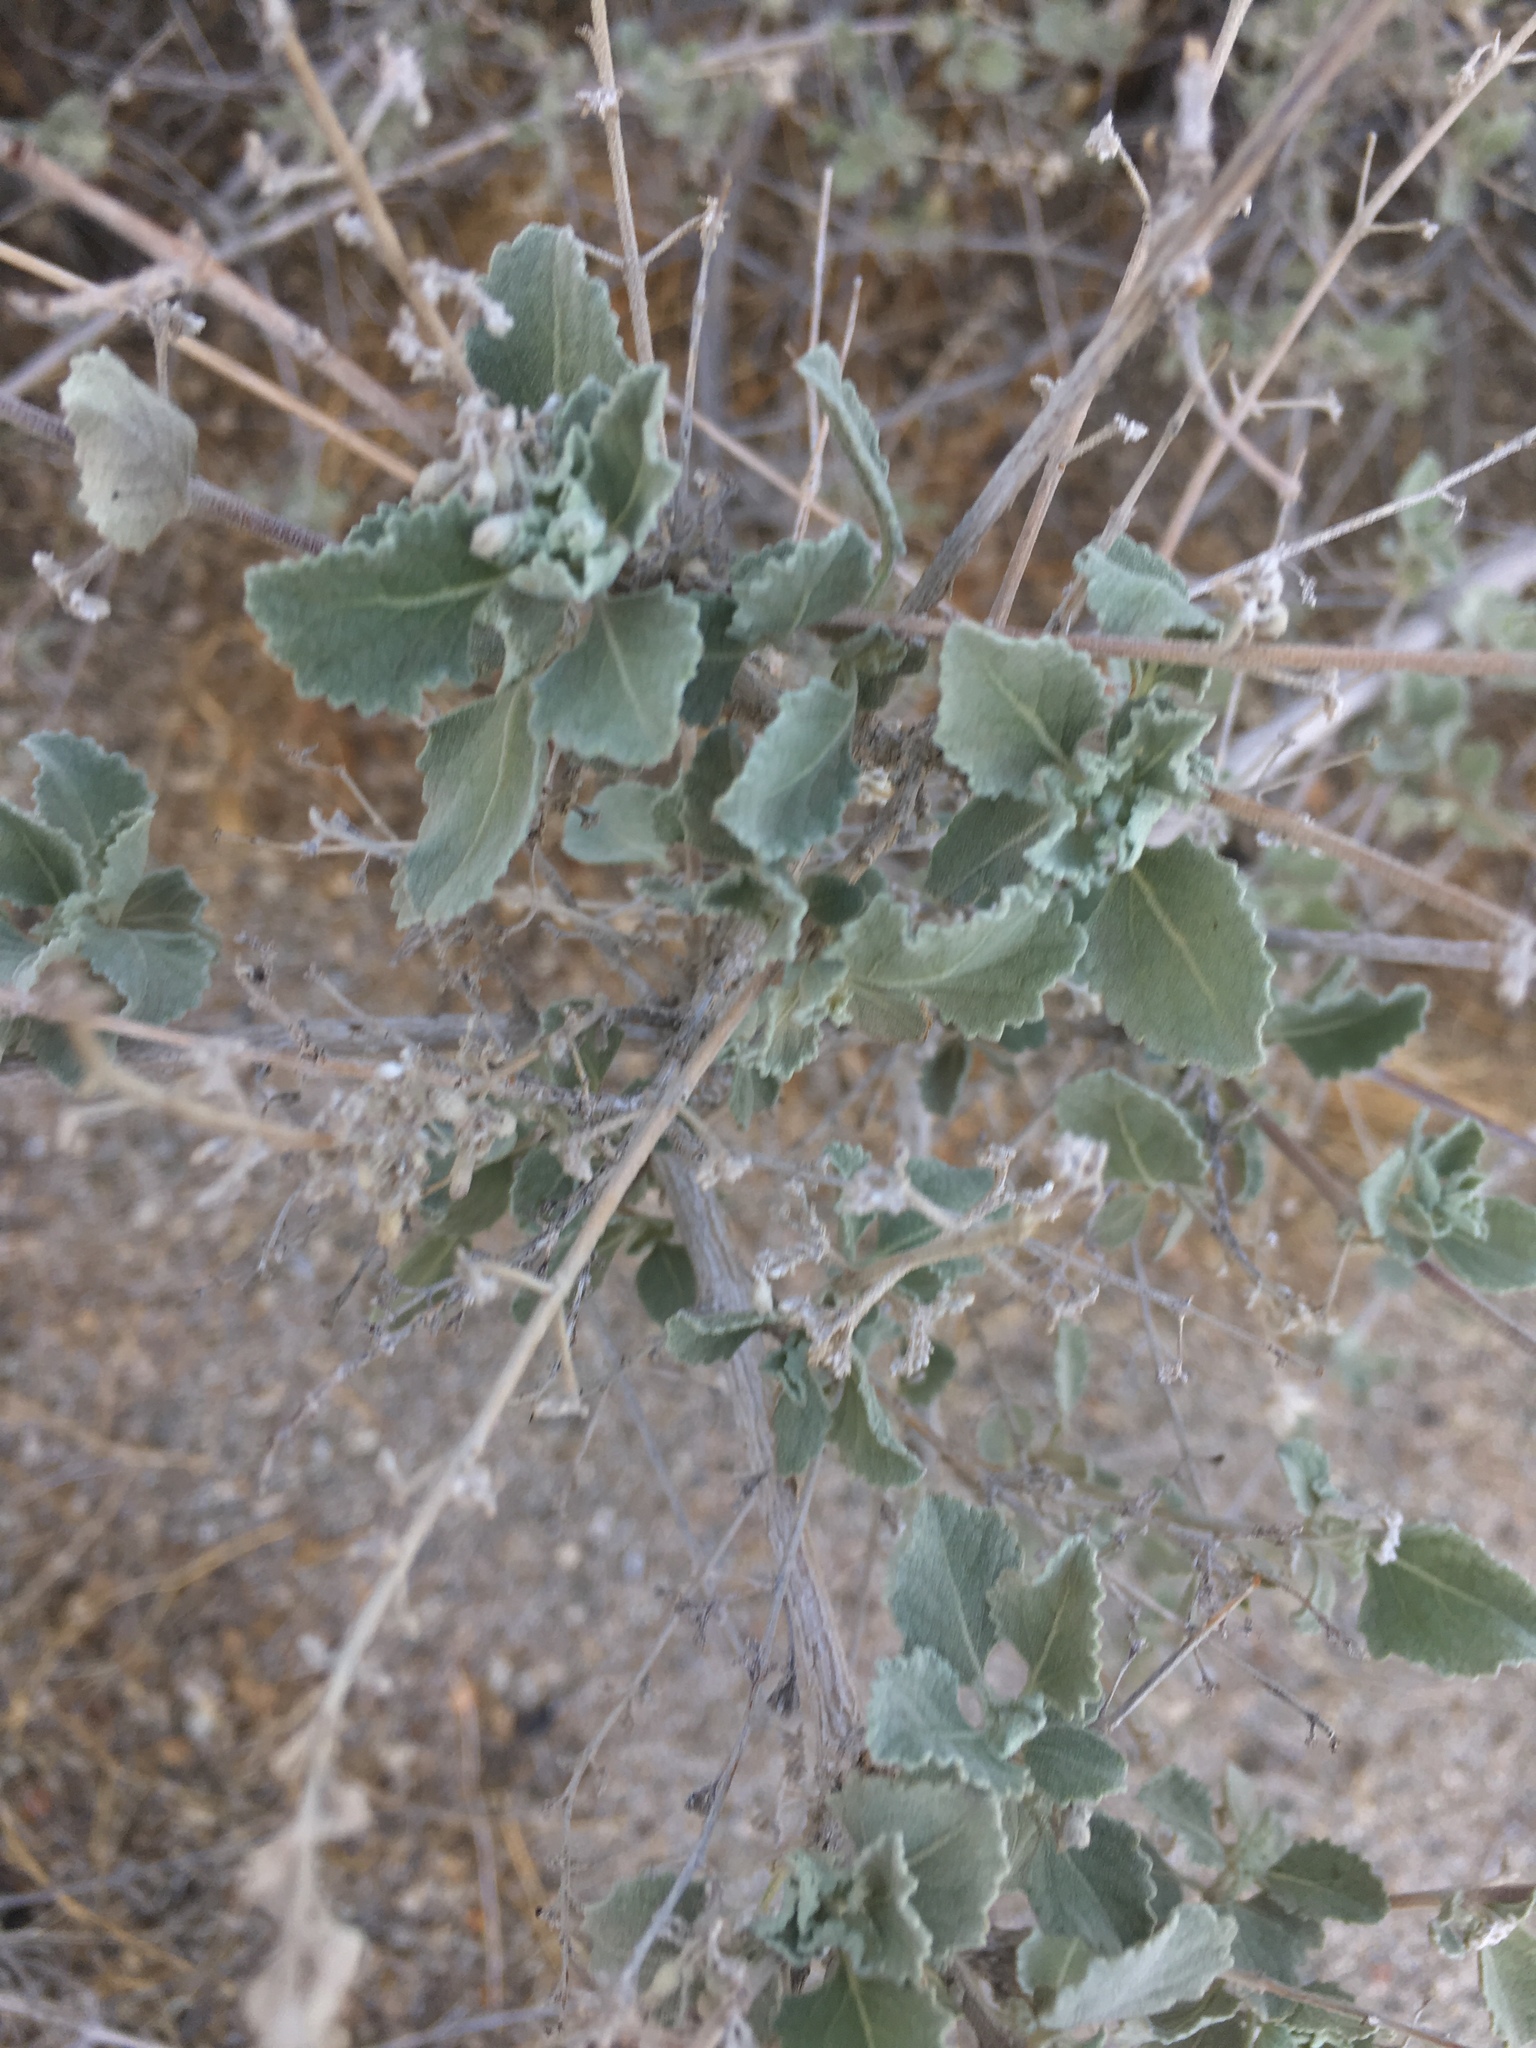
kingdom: Plantae
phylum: Tracheophyta
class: Magnoliopsida
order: Lamiales
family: Lamiaceae
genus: Condea
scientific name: Condea emoryi
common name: Chia
